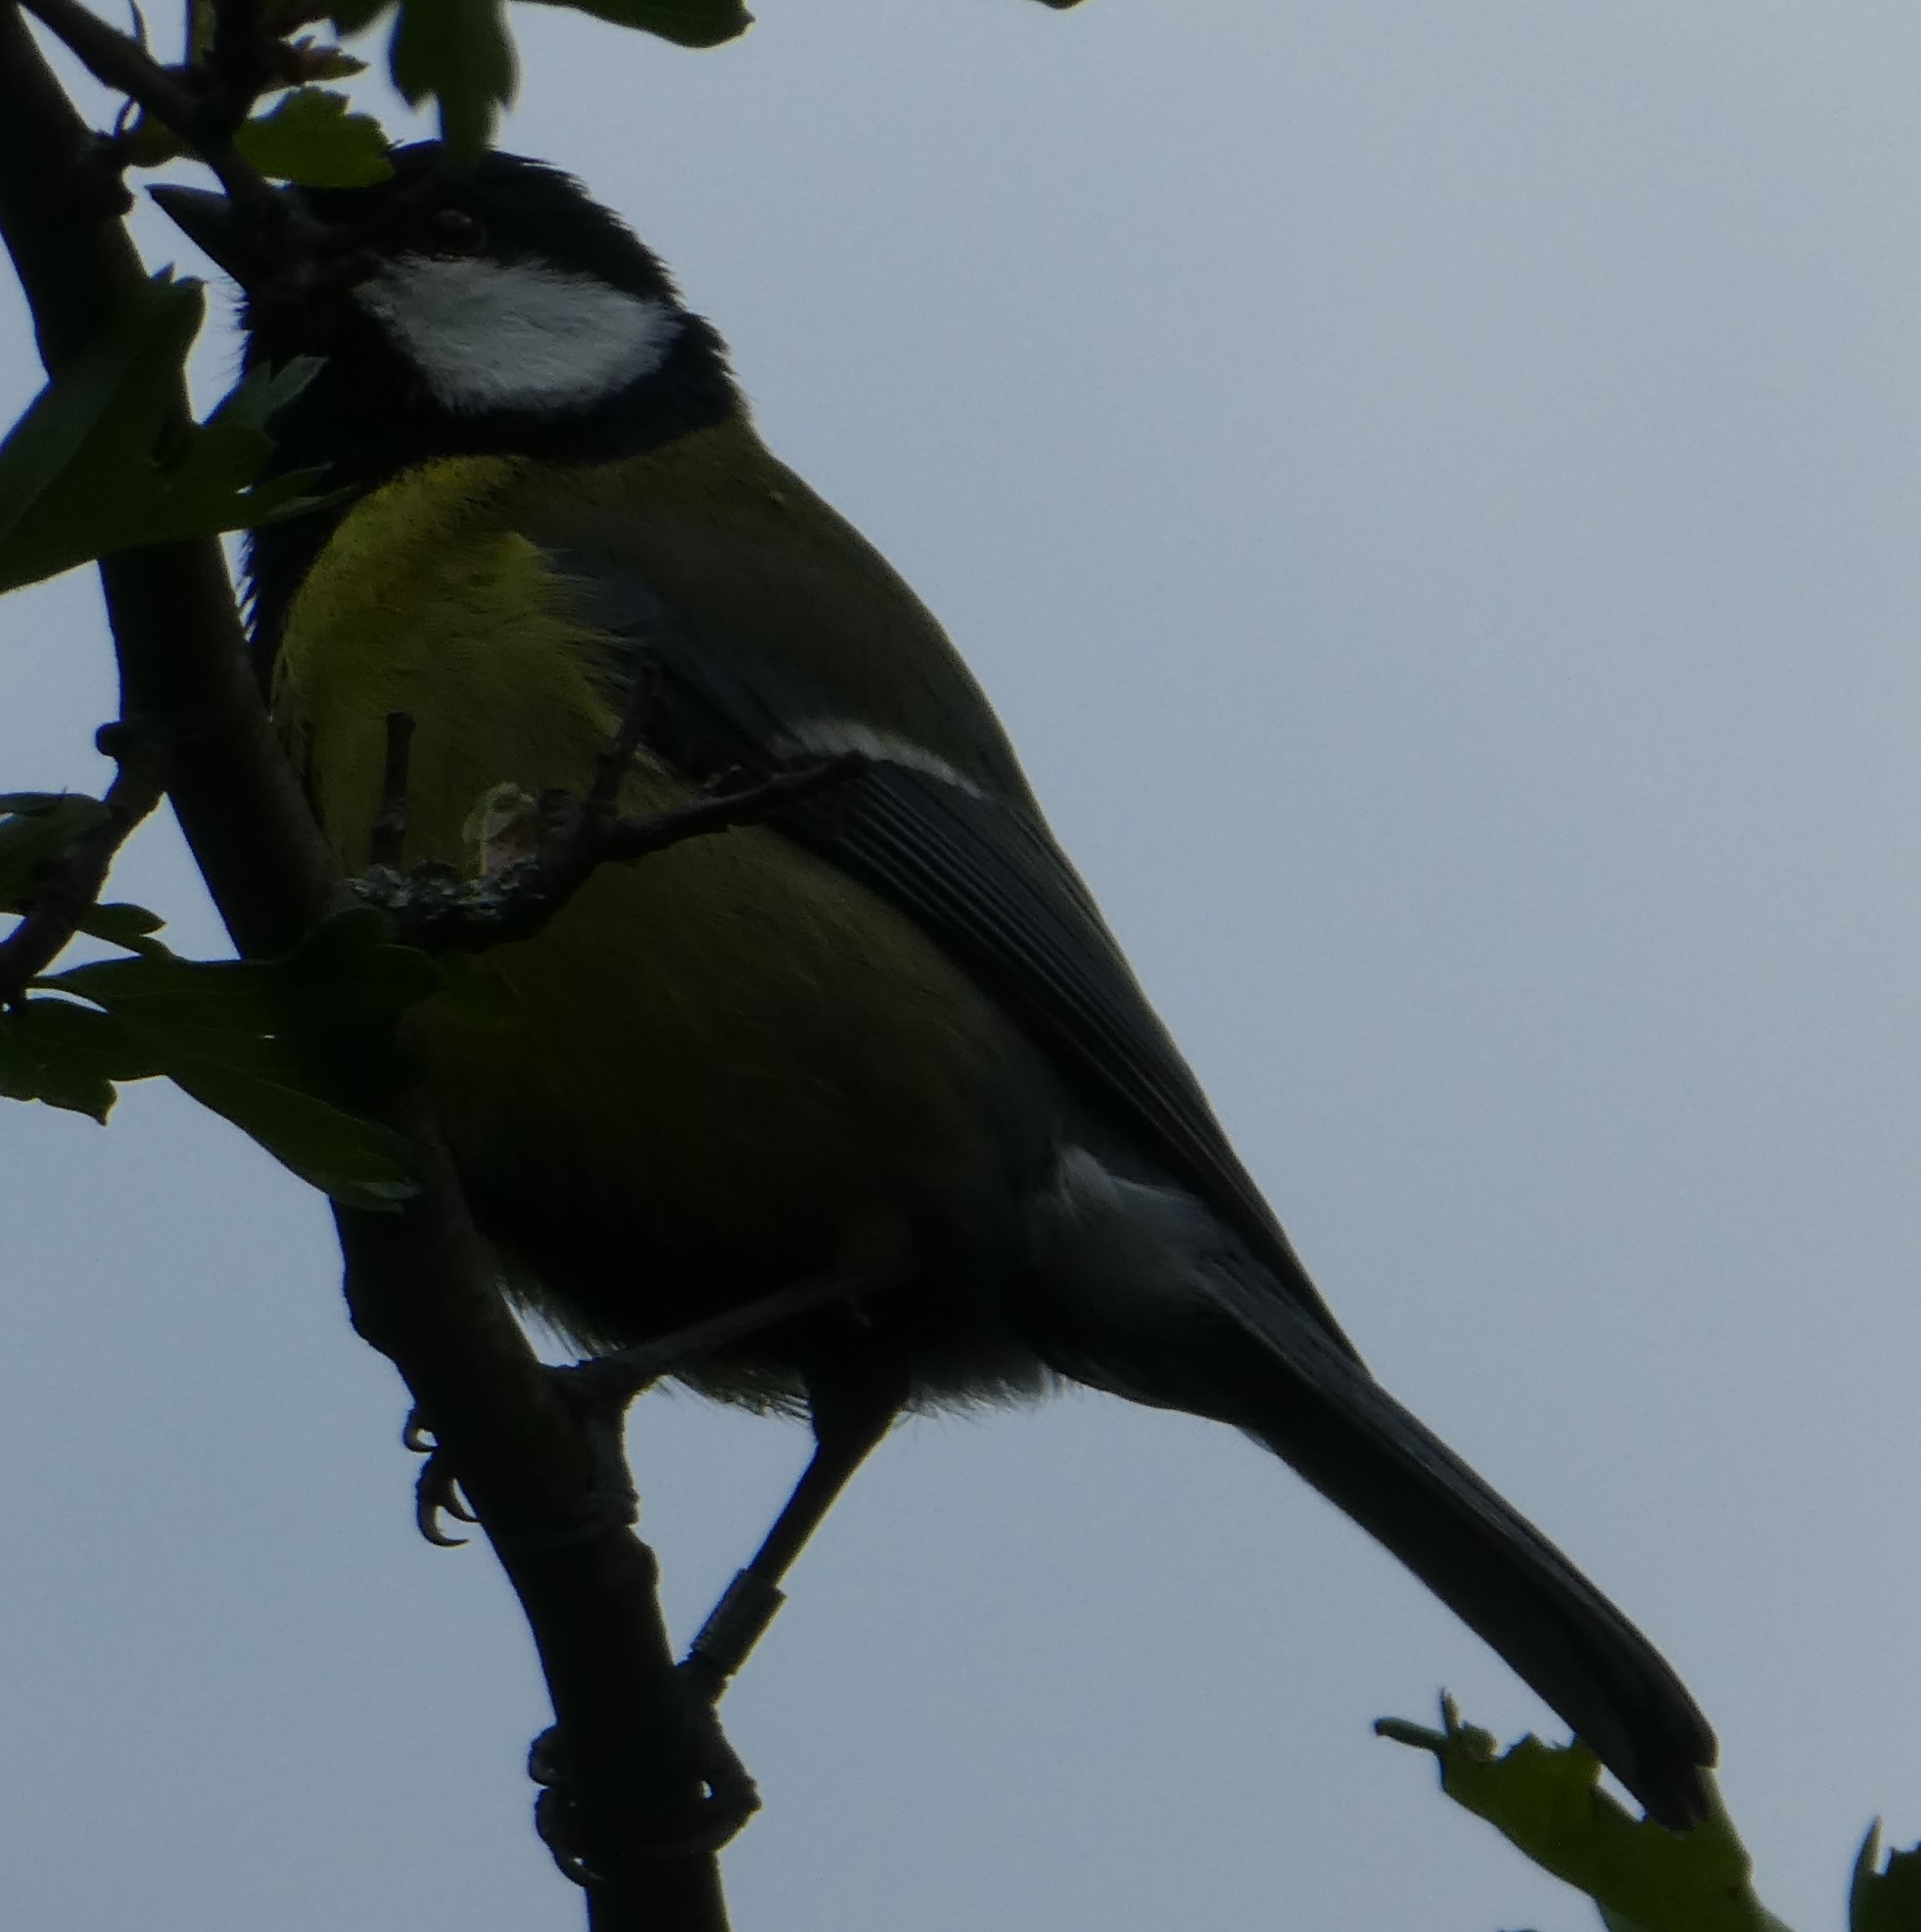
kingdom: Animalia
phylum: Chordata
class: Aves
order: Passeriformes
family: Paridae
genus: Parus
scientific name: Parus major
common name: Great tit
